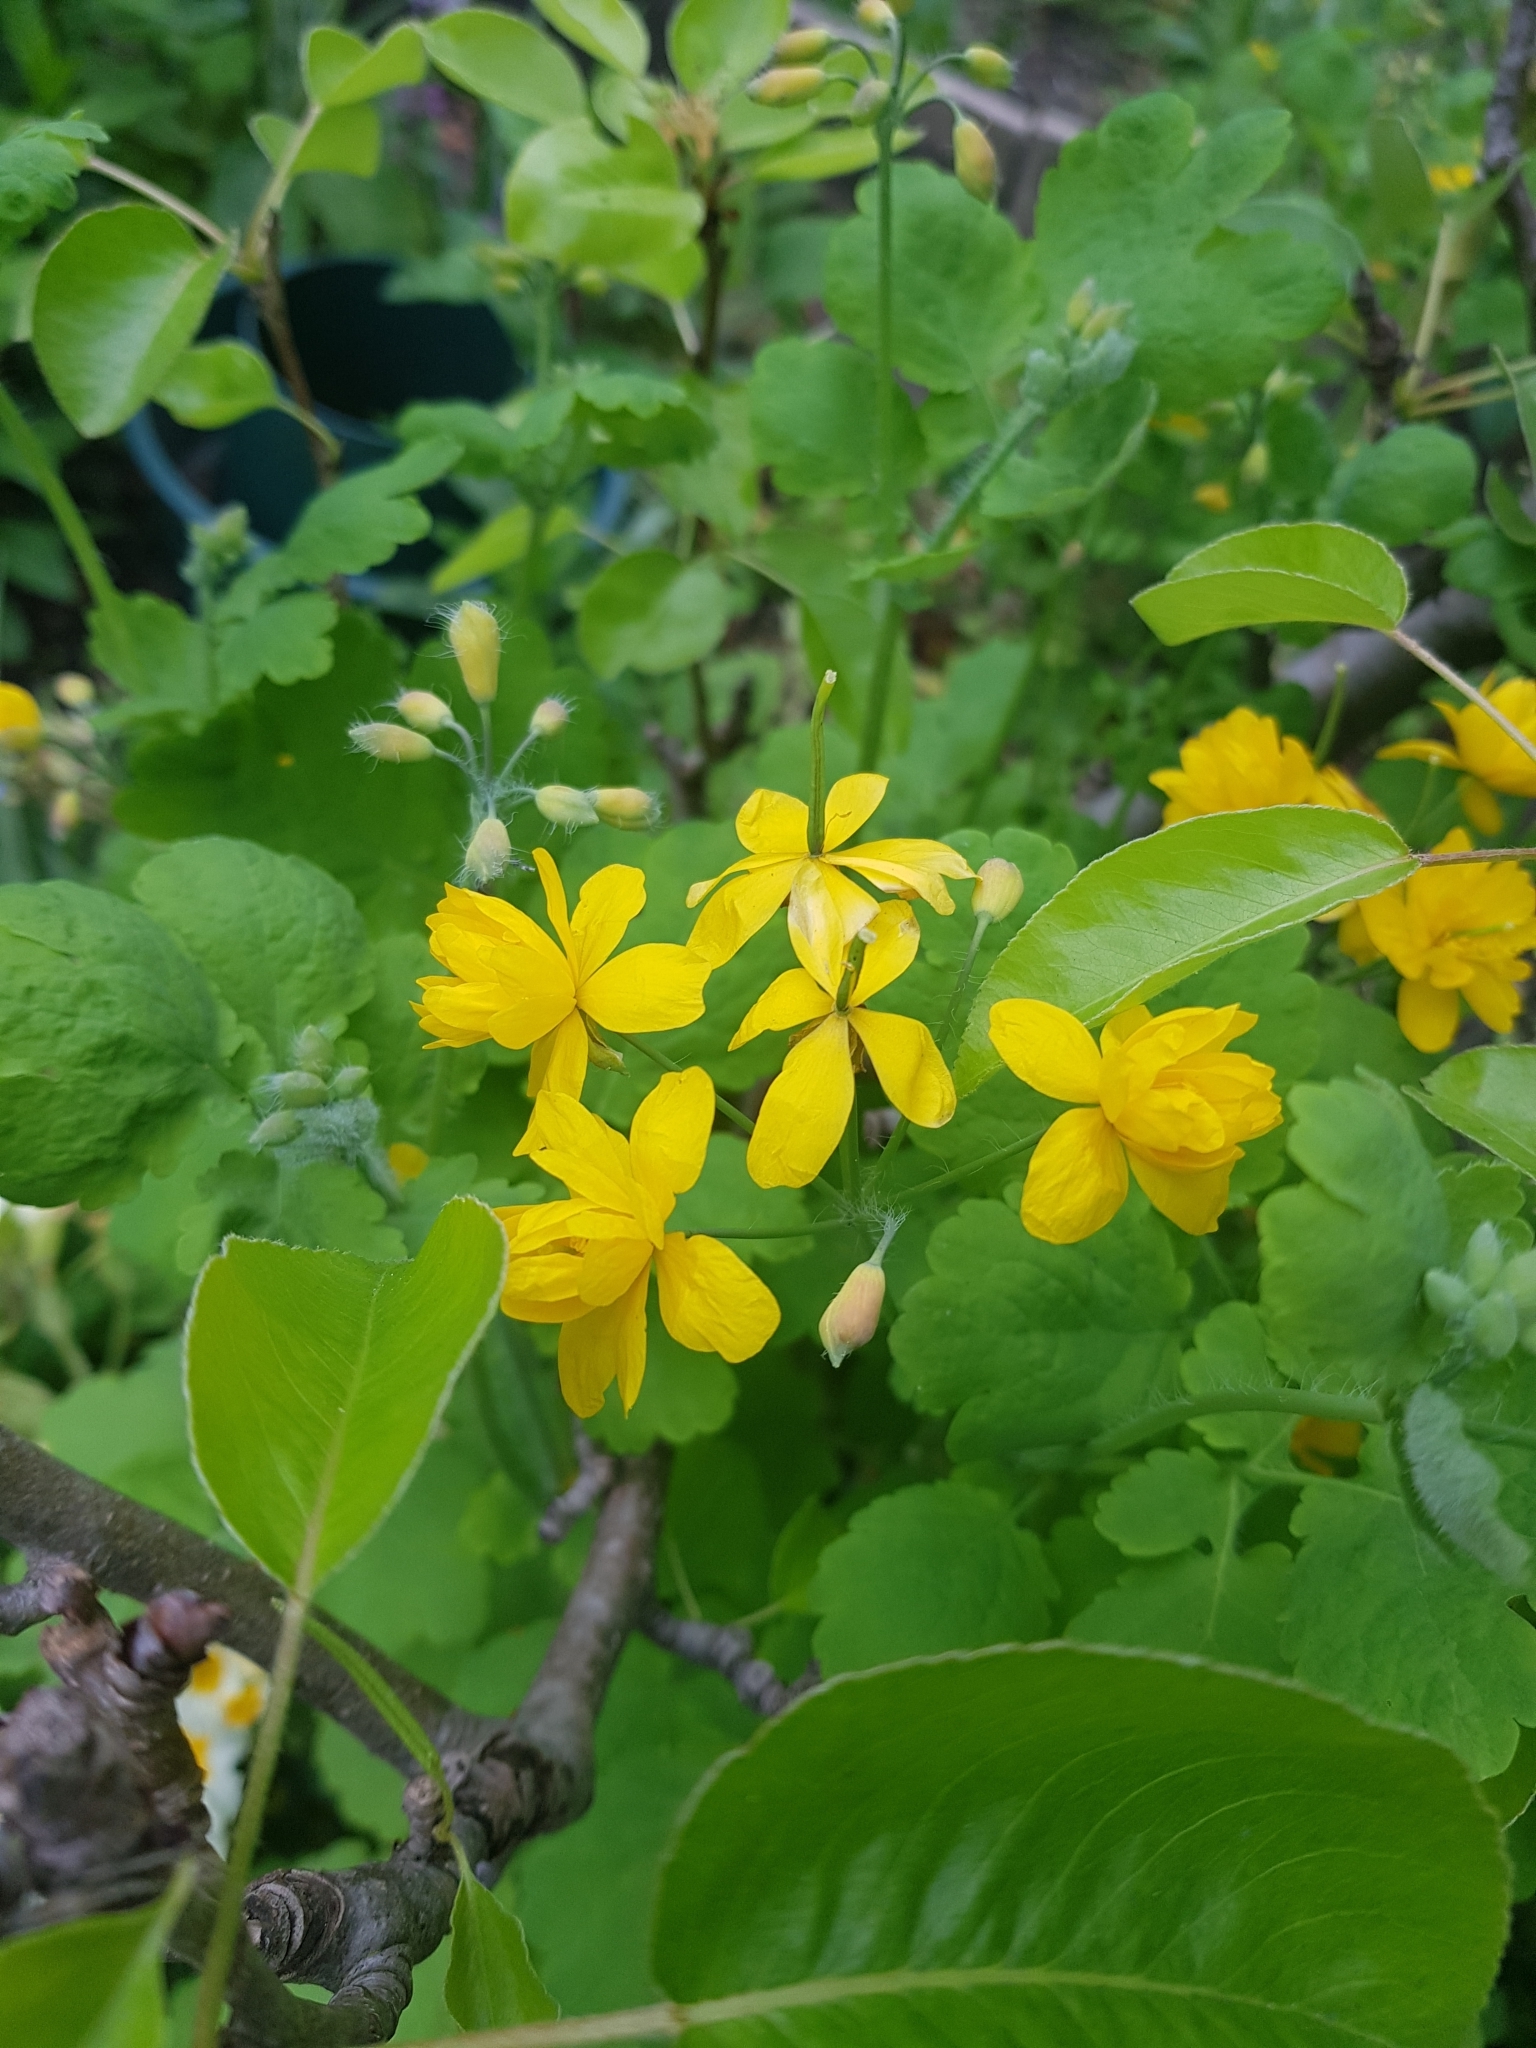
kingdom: Plantae
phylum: Tracheophyta
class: Magnoliopsida
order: Ranunculales
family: Papaveraceae
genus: Chelidonium
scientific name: Chelidonium majus
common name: Greater celandine
